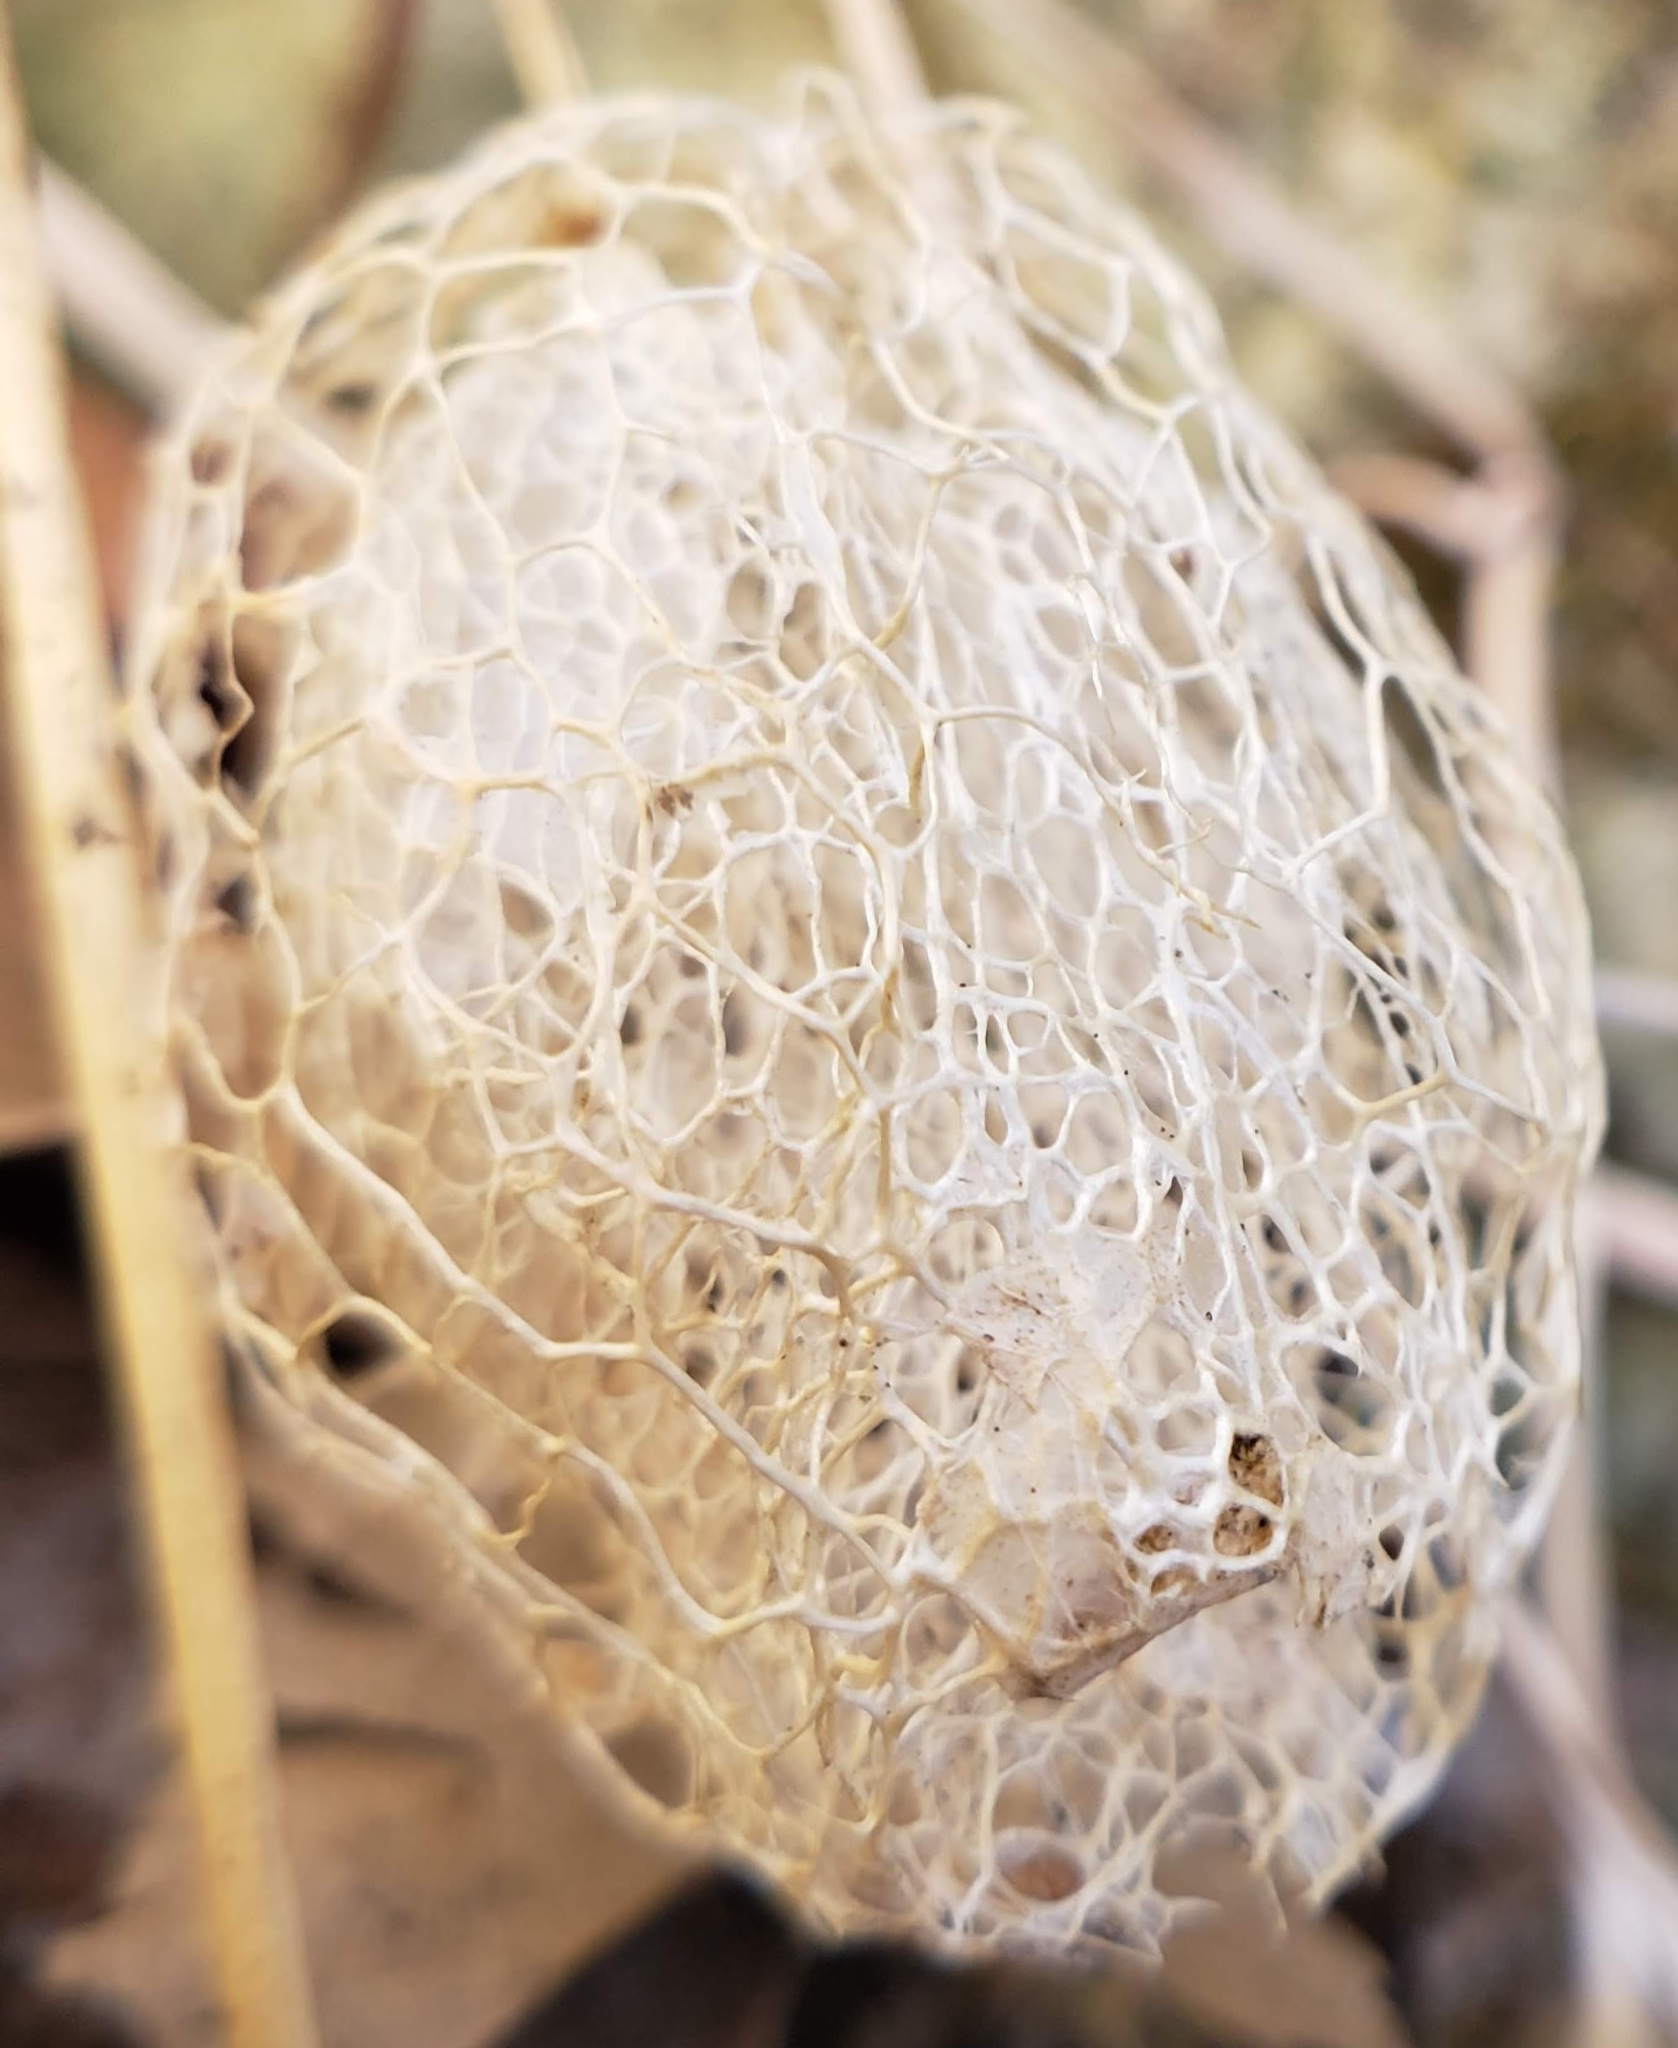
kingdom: Plantae
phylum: Tracheophyta
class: Magnoliopsida
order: Cucurbitales
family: Cucurbitaceae
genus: Echinocystis
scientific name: Echinocystis lobata
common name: Wild cucumber
